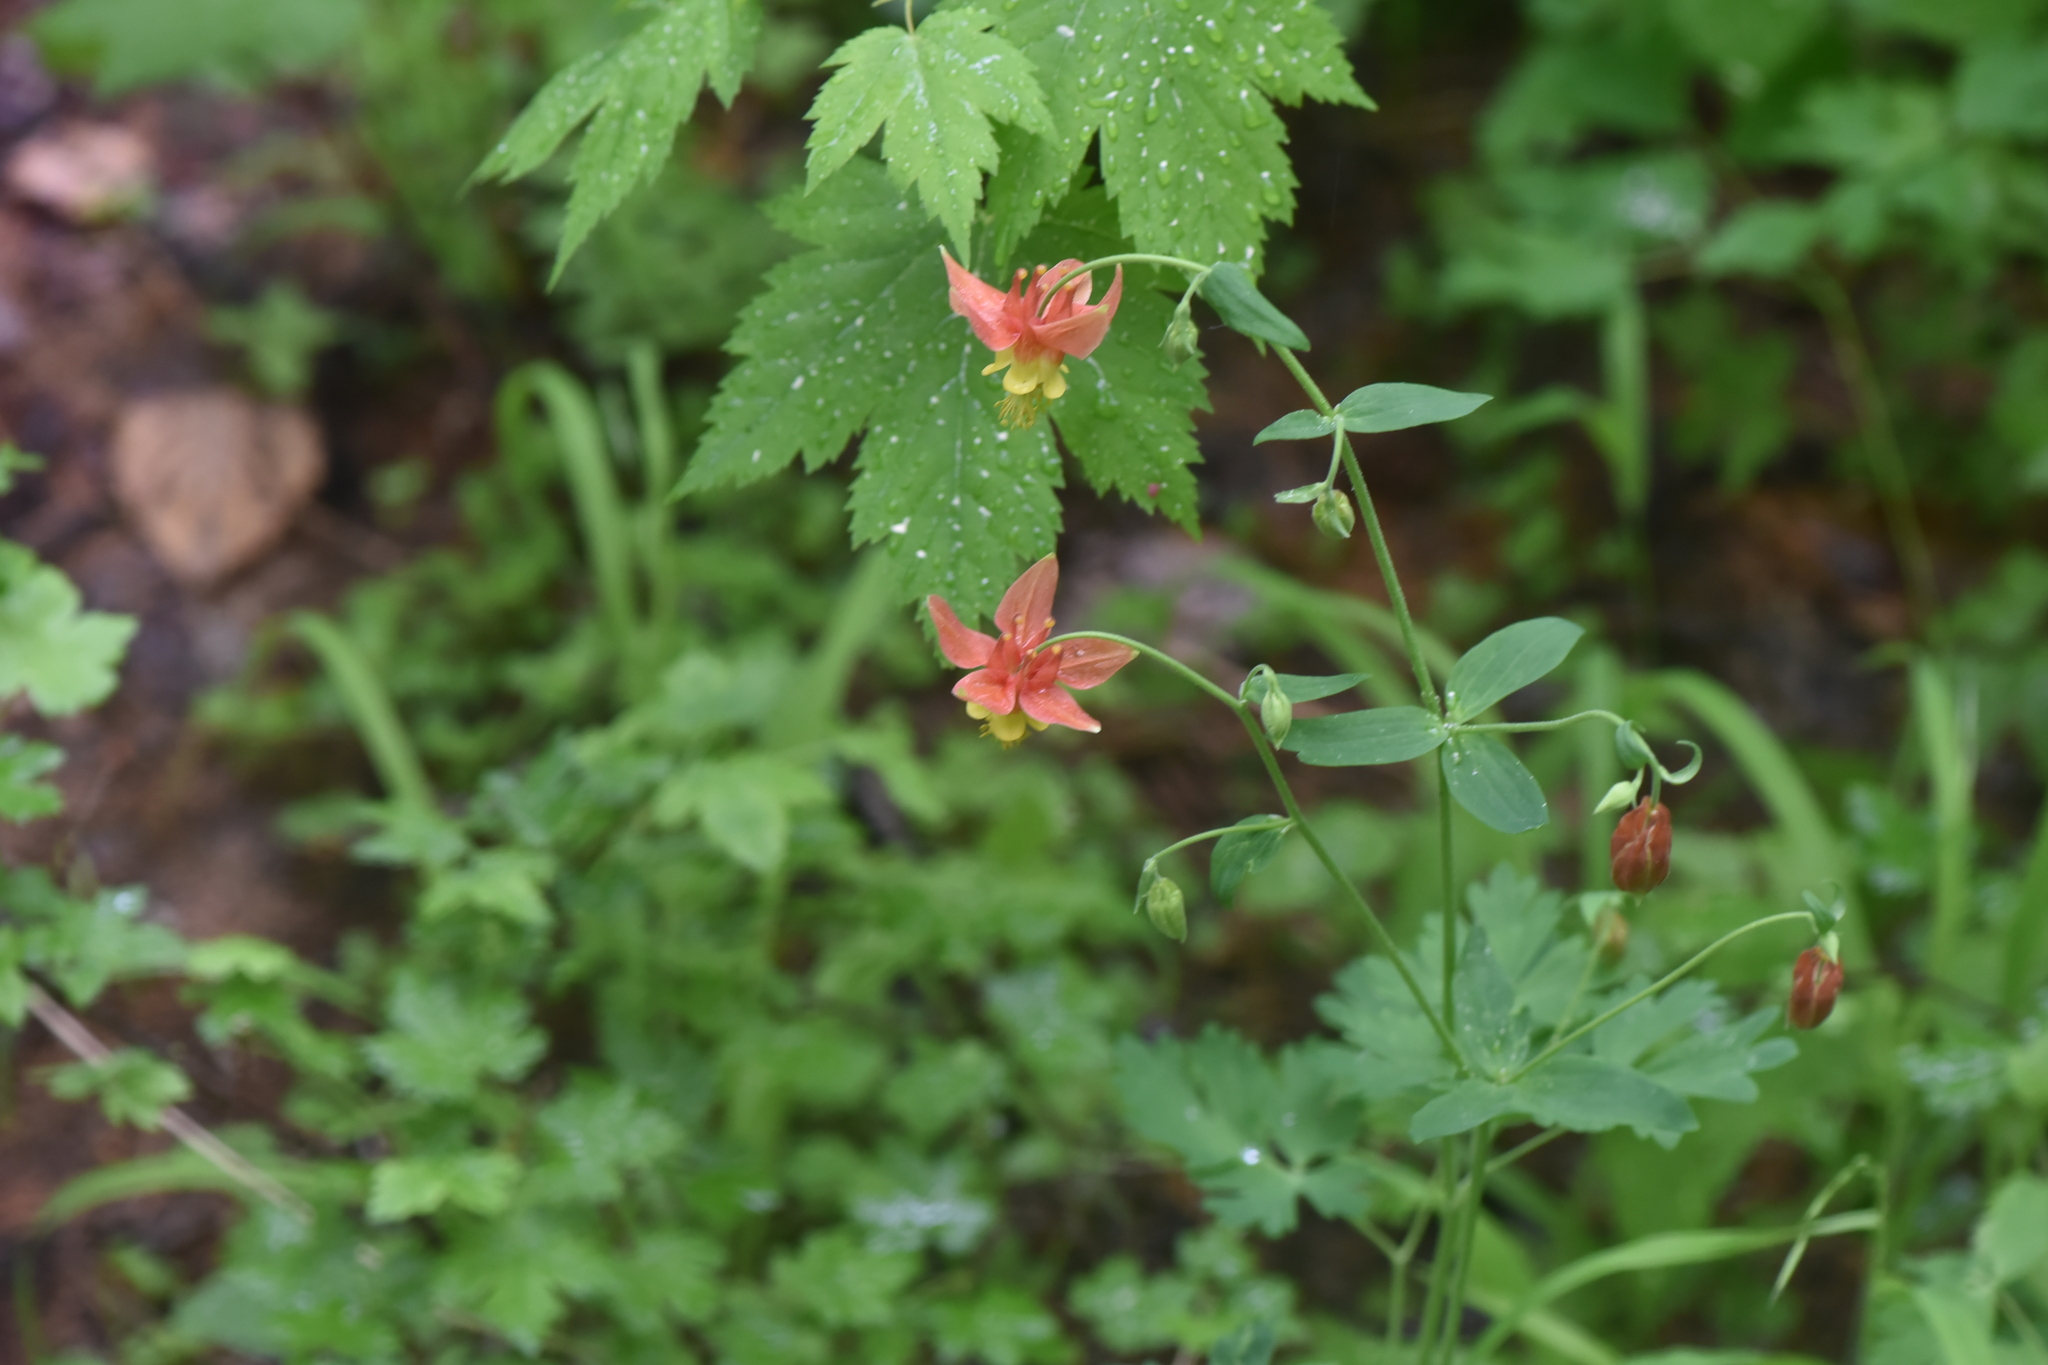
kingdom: Plantae
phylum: Tracheophyta
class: Magnoliopsida
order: Ranunculales
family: Ranunculaceae
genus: Aquilegia
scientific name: Aquilegia formosa
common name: Sitka columbine
